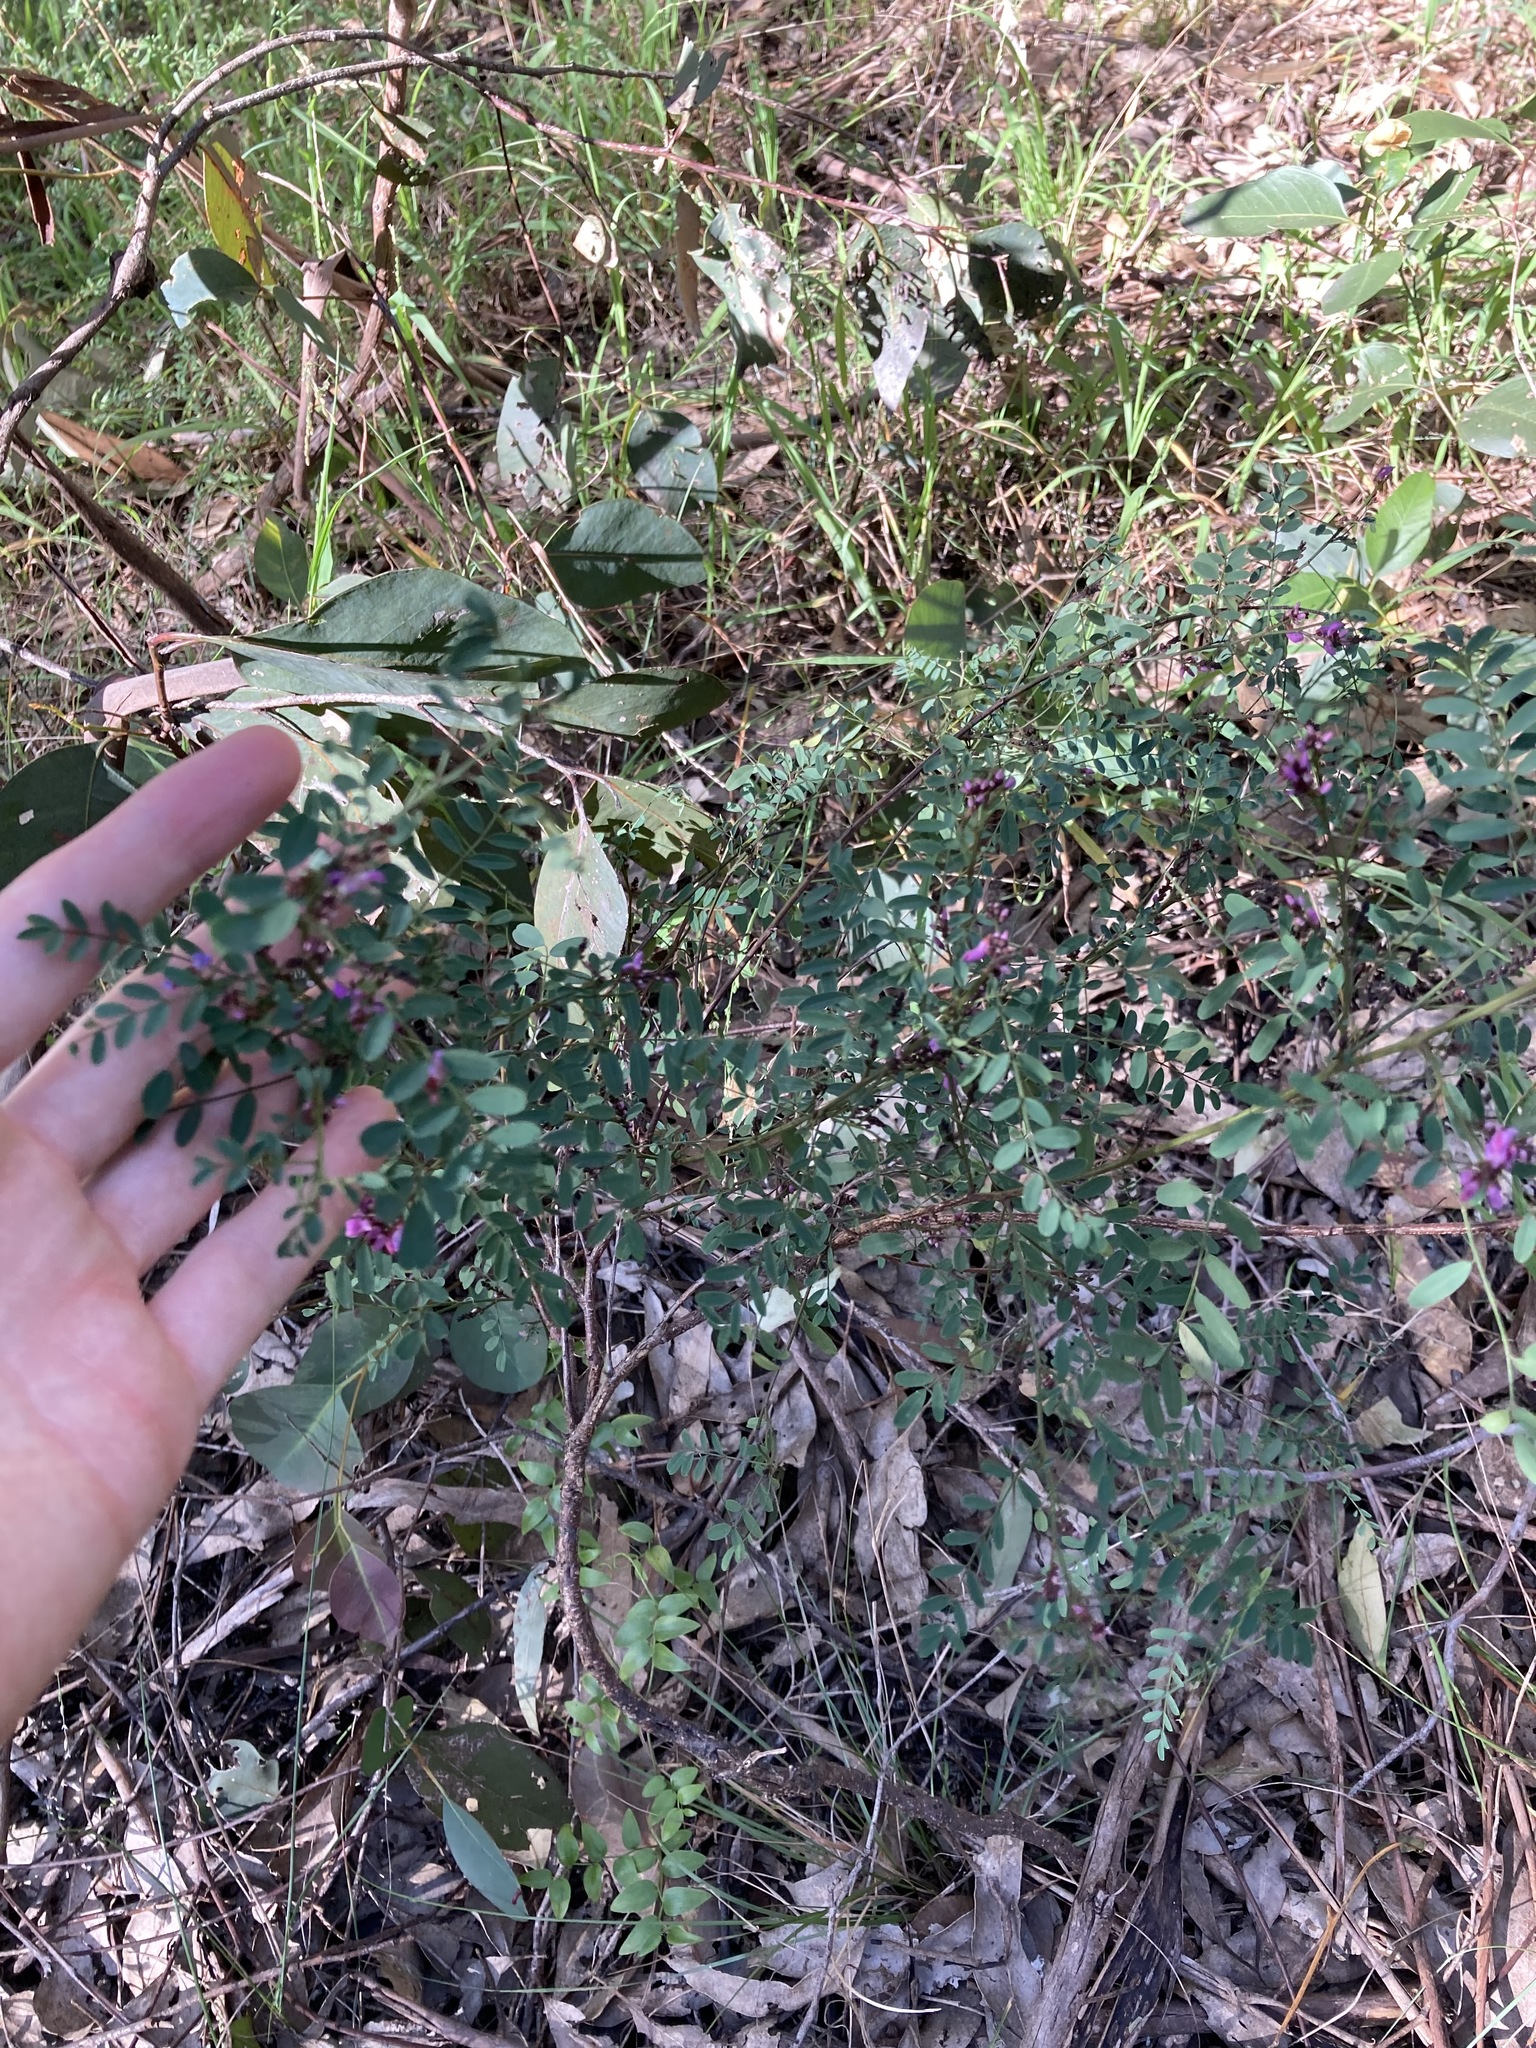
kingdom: Plantae
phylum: Tracheophyta
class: Magnoliopsida
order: Fabales
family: Fabaceae
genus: Indigofera
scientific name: Indigofera australis
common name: Australian indigo
